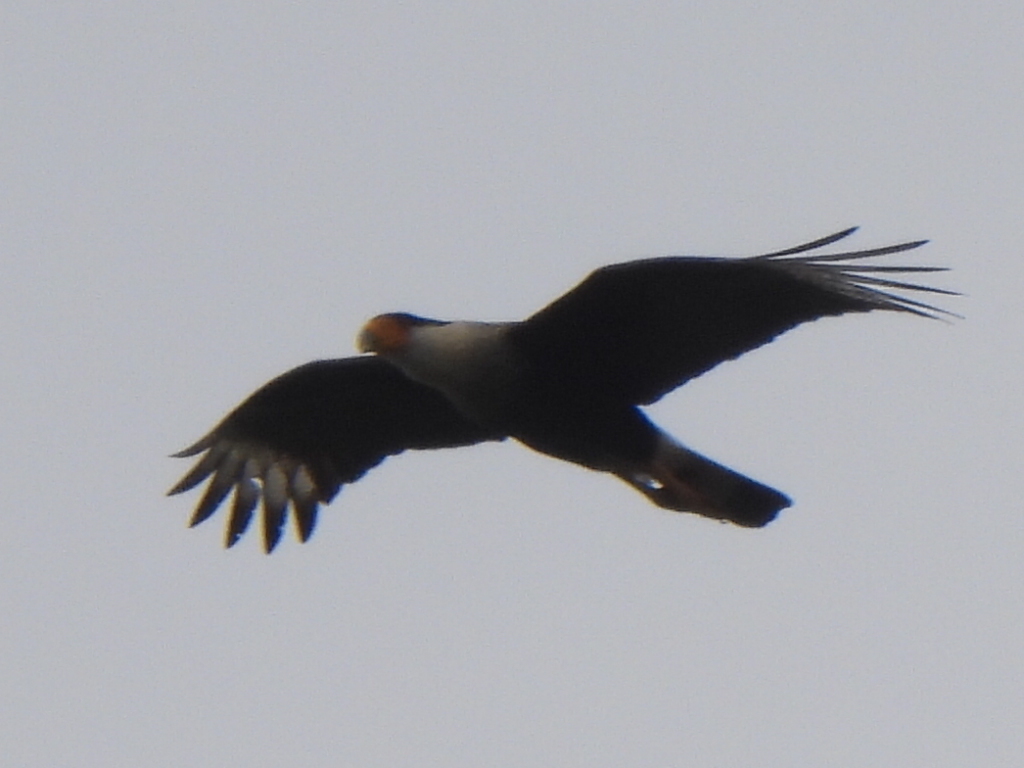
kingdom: Animalia
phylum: Chordata
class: Aves
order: Falconiformes
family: Falconidae
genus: Caracara
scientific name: Caracara plancus
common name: Southern caracara
